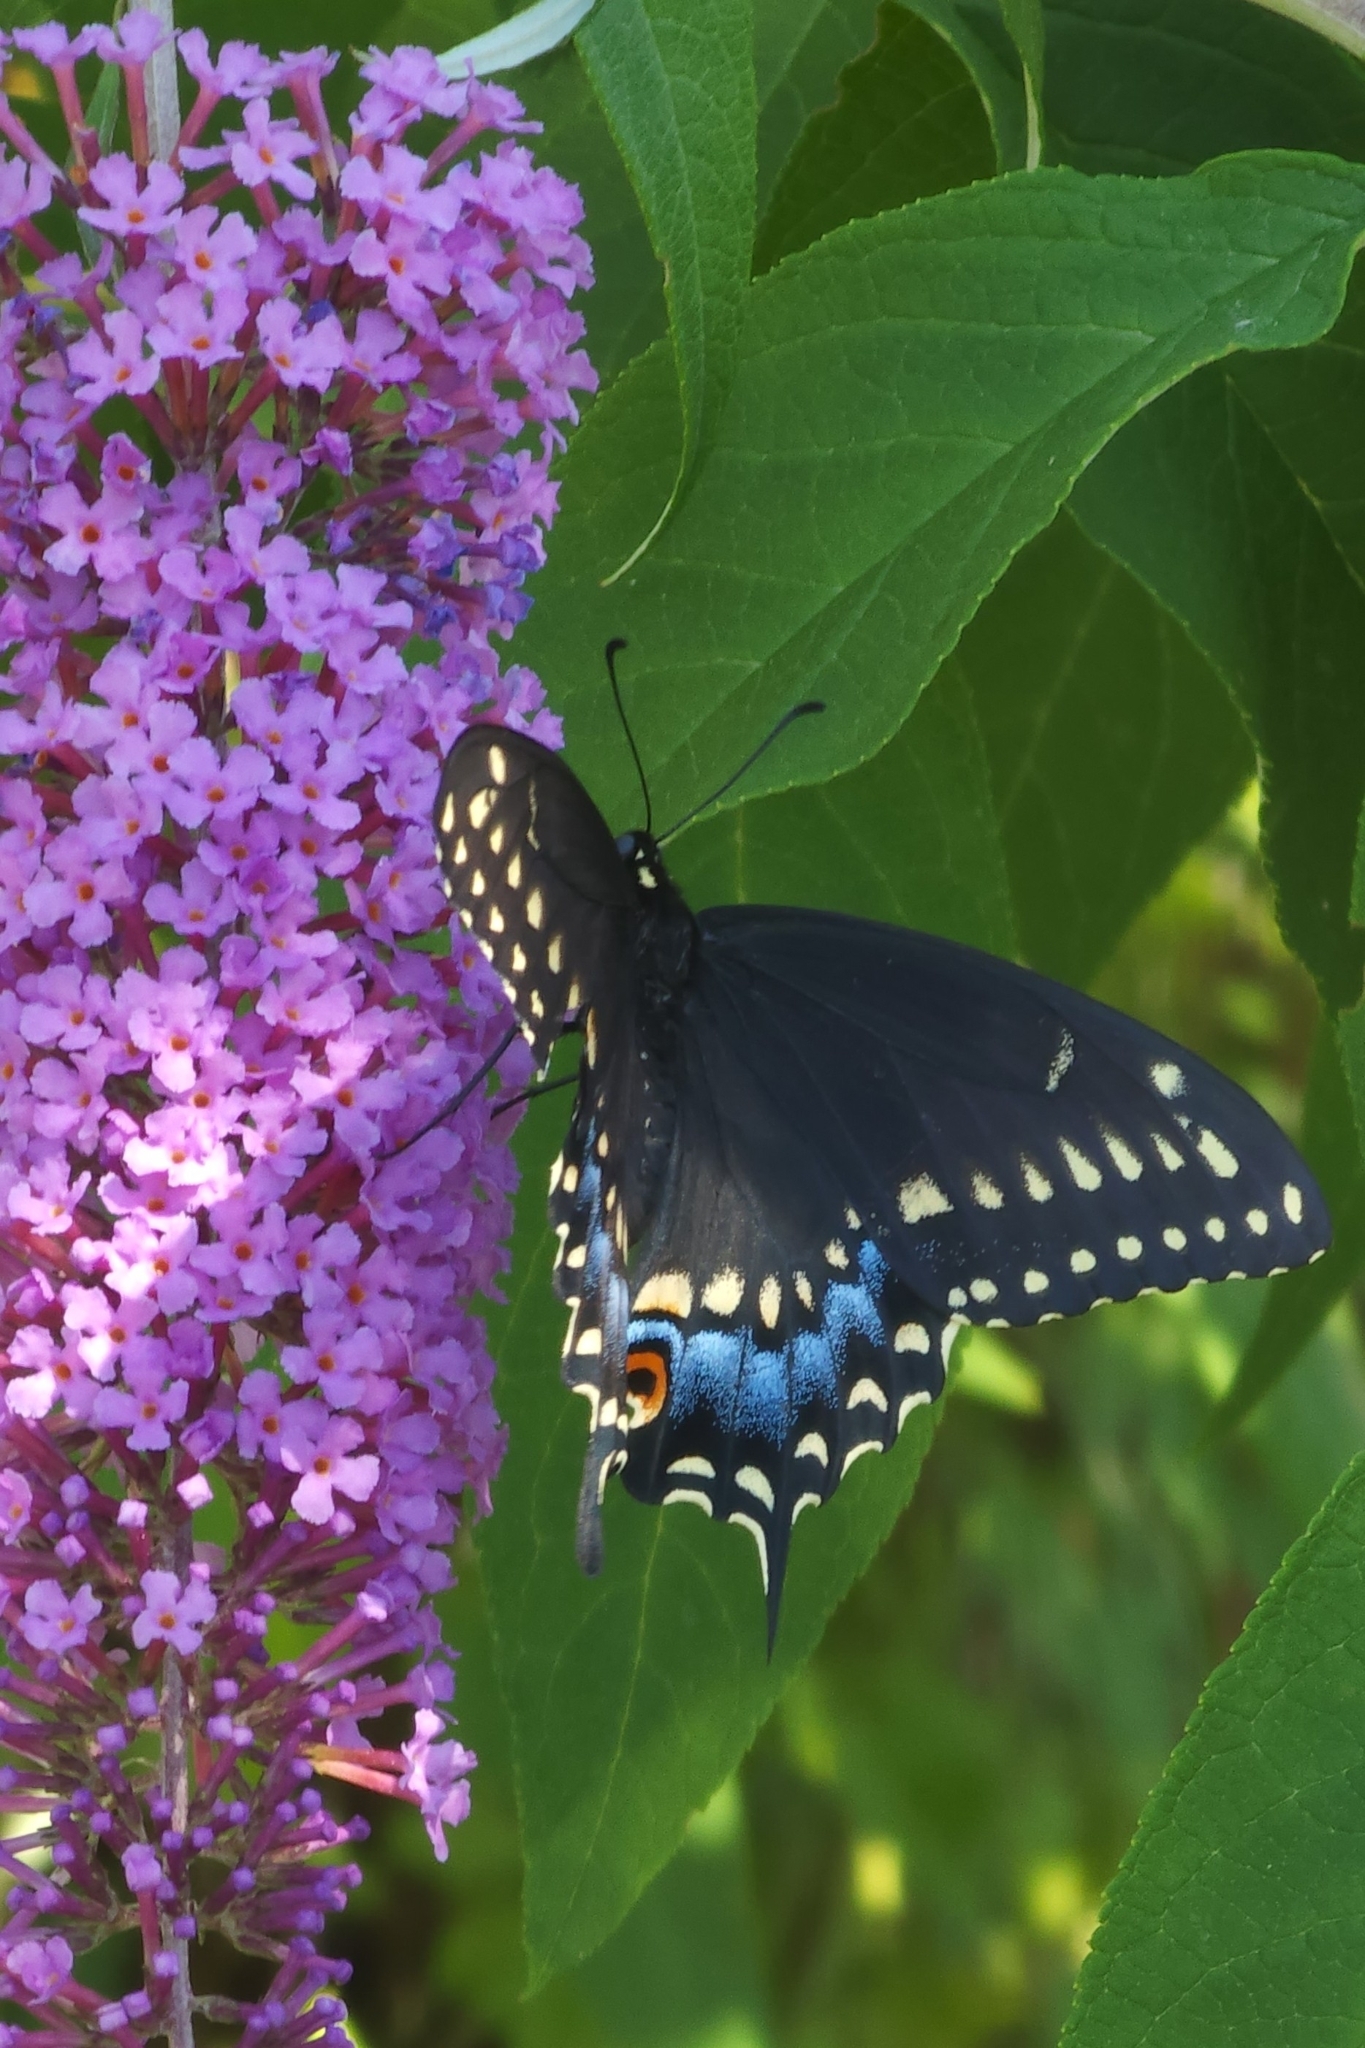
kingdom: Animalia
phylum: Arthropoda
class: Insecta
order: Lepidoptera
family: Papilionidae
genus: Papilio
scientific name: Papilio polyxenes
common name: Black swallowtail
